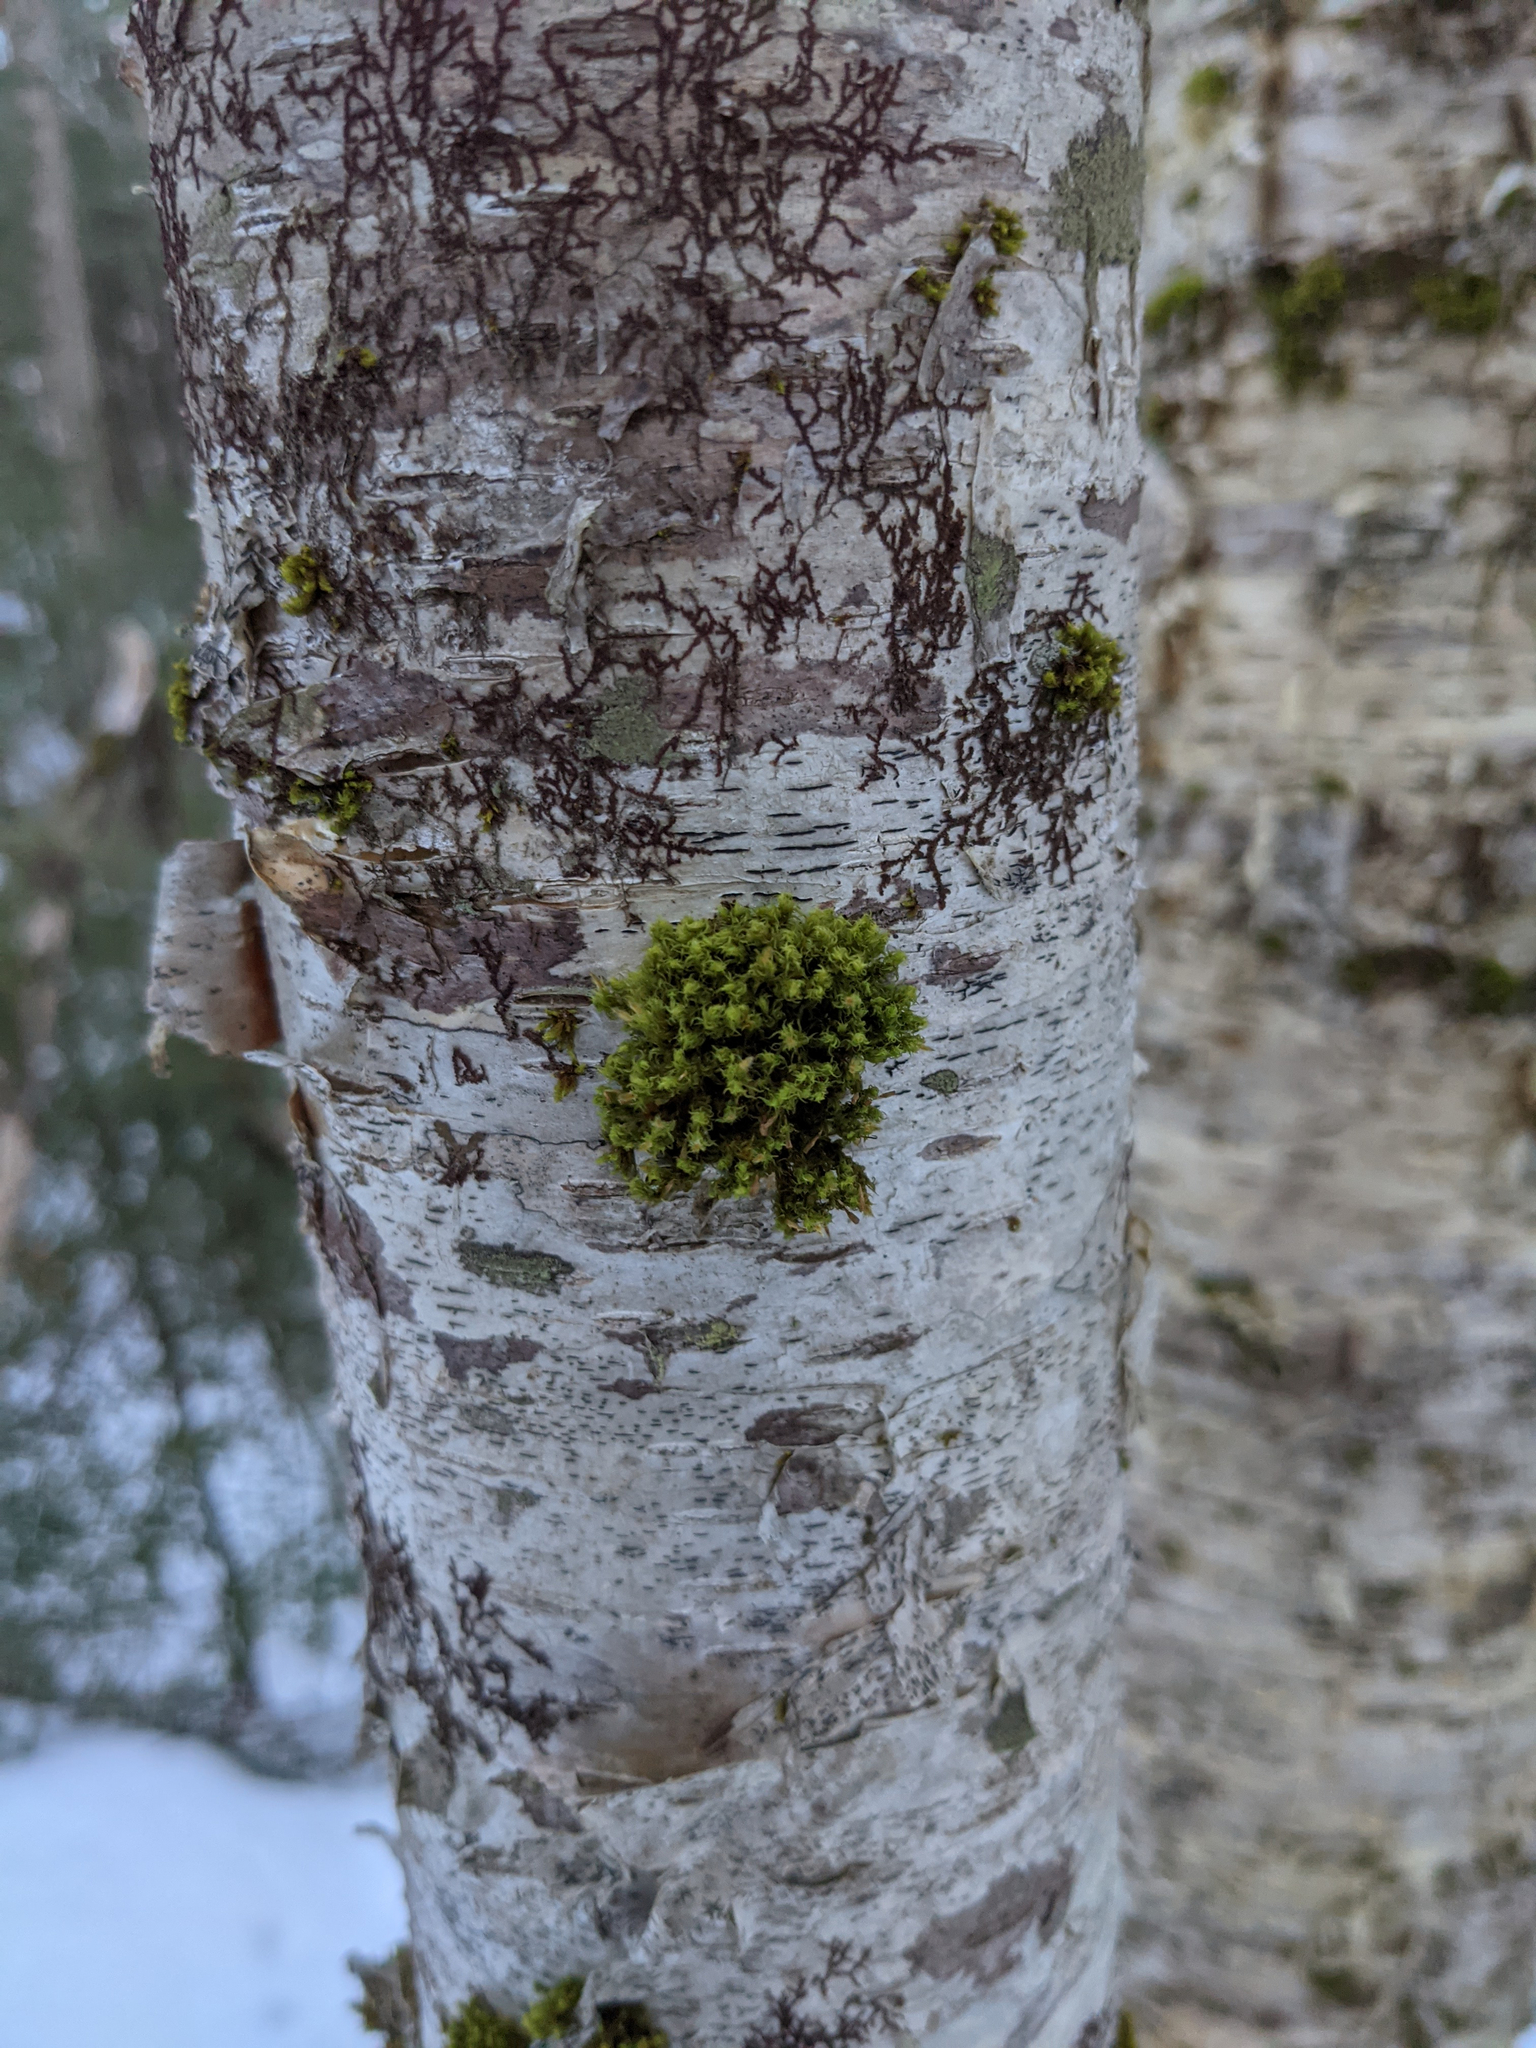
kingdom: Plantae
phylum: Bryophyta
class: Bryopsida
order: Orthotrichales
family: Orthotrichaceae
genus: Ulota
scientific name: Ulota crispa
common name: Crisped pincushion moss
